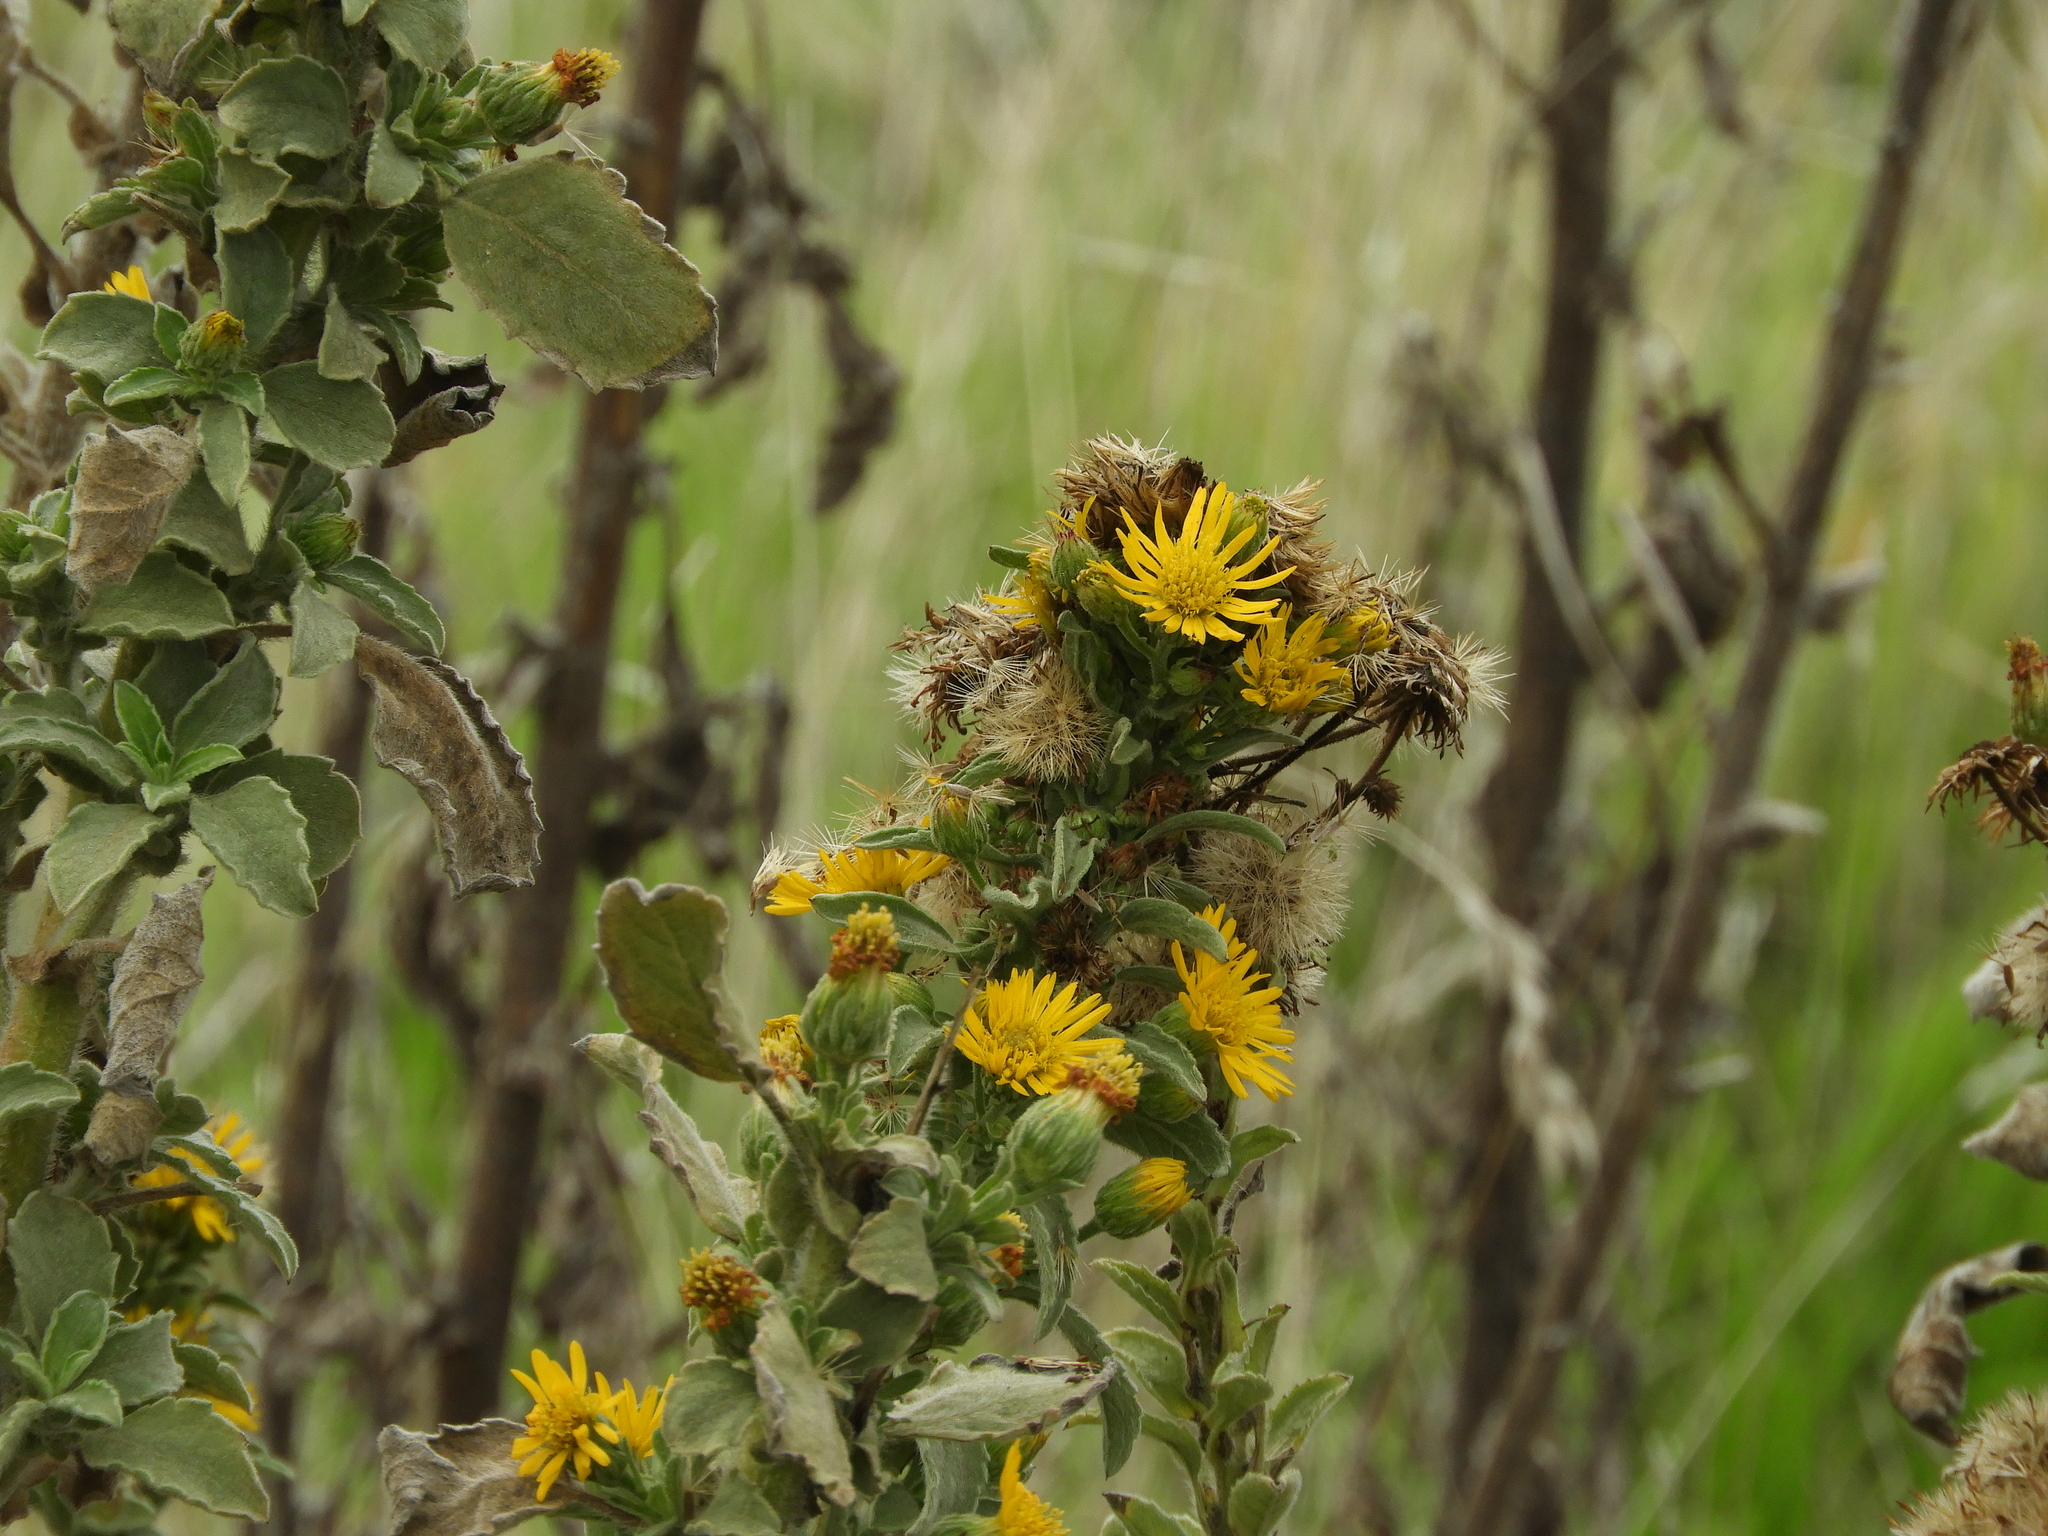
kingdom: Plantae
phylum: Tracheophyta
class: Magnoliopsida
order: Asterales
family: Asteraceae
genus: Heterotheca
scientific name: Heterotheca grandiflora
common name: Telegraphweed
